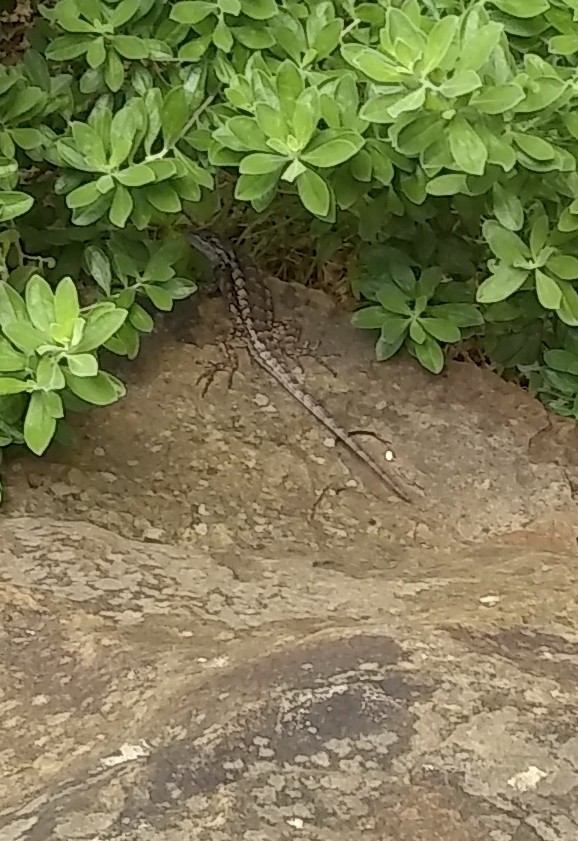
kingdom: Animalia
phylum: Chordata
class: Squamata
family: Phrynosomatidae
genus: Sceloporus
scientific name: Sceloporus olivaceus
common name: Texas spiny lizard
